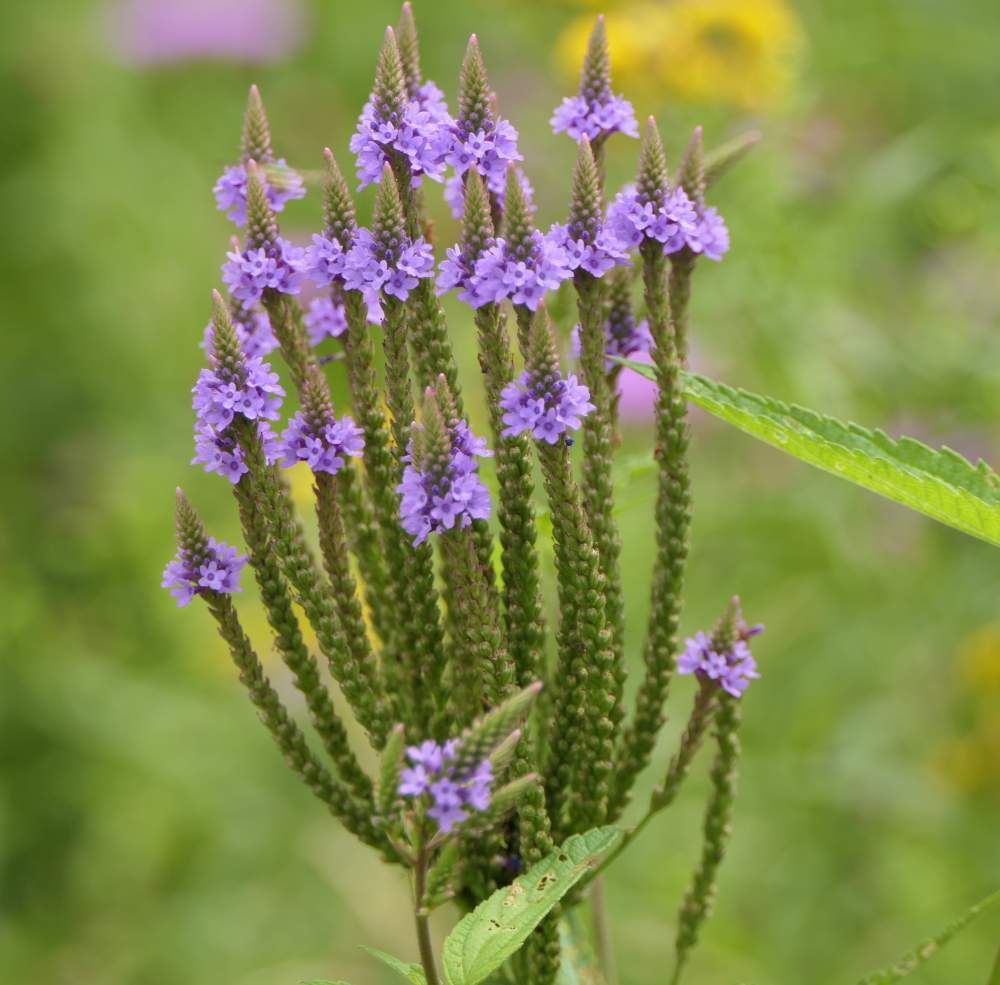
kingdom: Plantae
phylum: Tracheophyta
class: Magnoliopsida
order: Lamiales
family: Verbenaceae
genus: Verbena
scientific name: Verbena hastata
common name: American blue vervain
